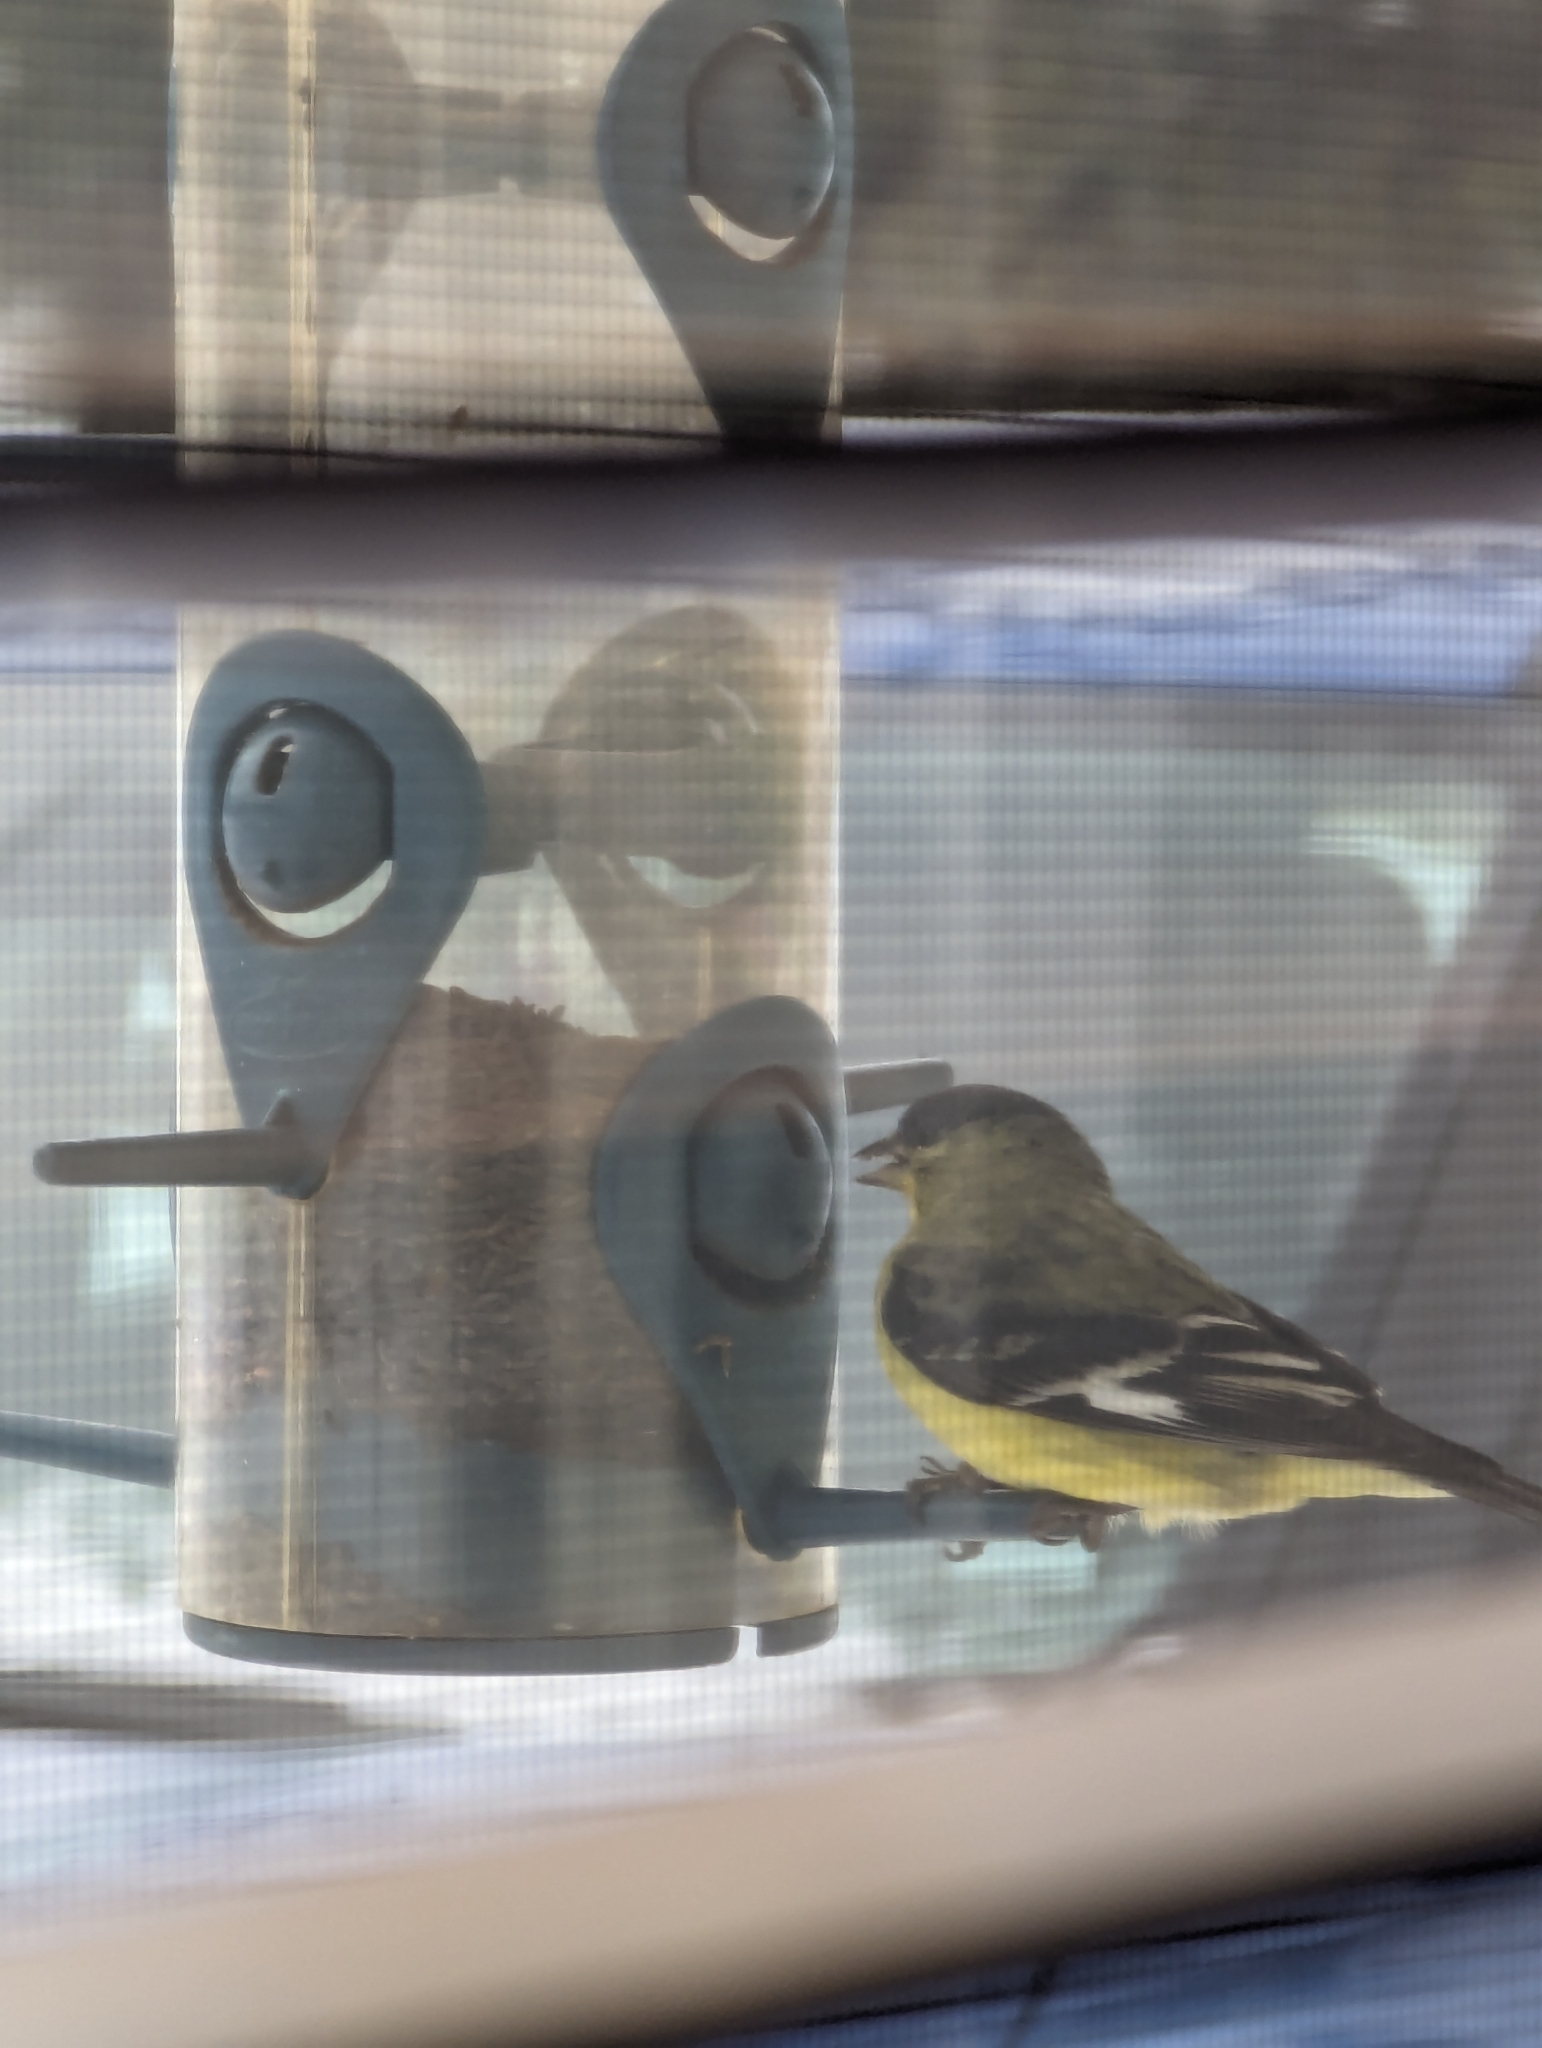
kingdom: Animalia
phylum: Chordata
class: Aves
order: Passeriformes
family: Fringillidae
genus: Spinus
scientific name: Spinus psaltria
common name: Lesser goldfinch
